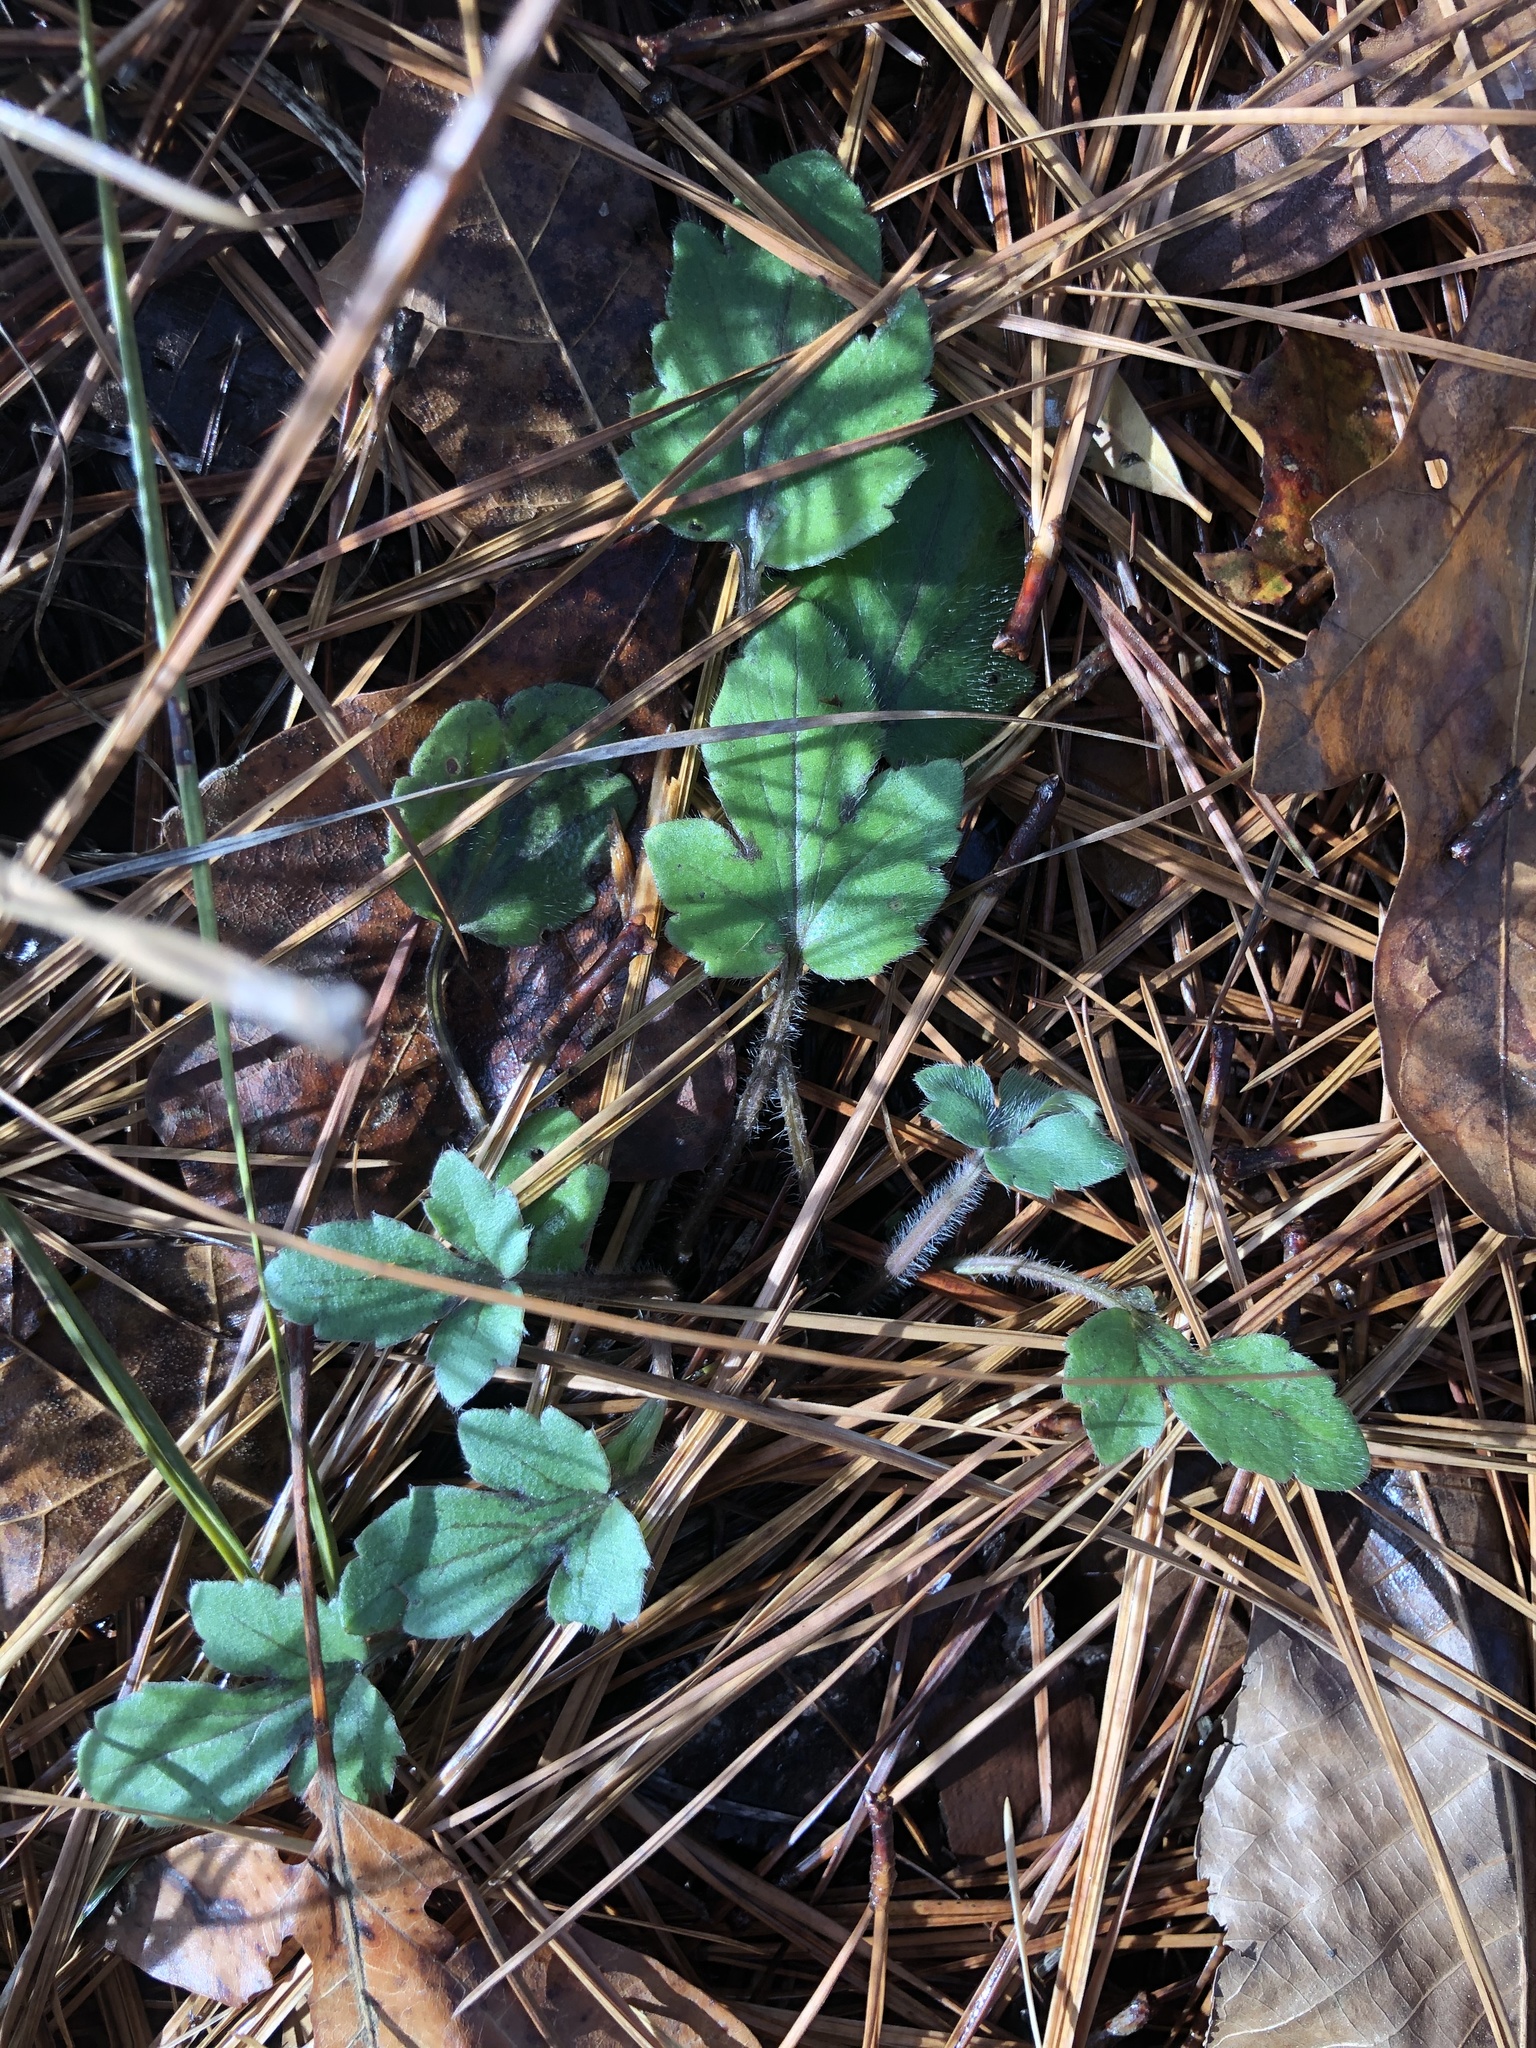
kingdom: Plantae
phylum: Tracheophyta
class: Magnoliopsida
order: Ranunculales
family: Ranunculaceae
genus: Ranunculus
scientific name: Ranunculus fascicularis
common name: Early buttercup
